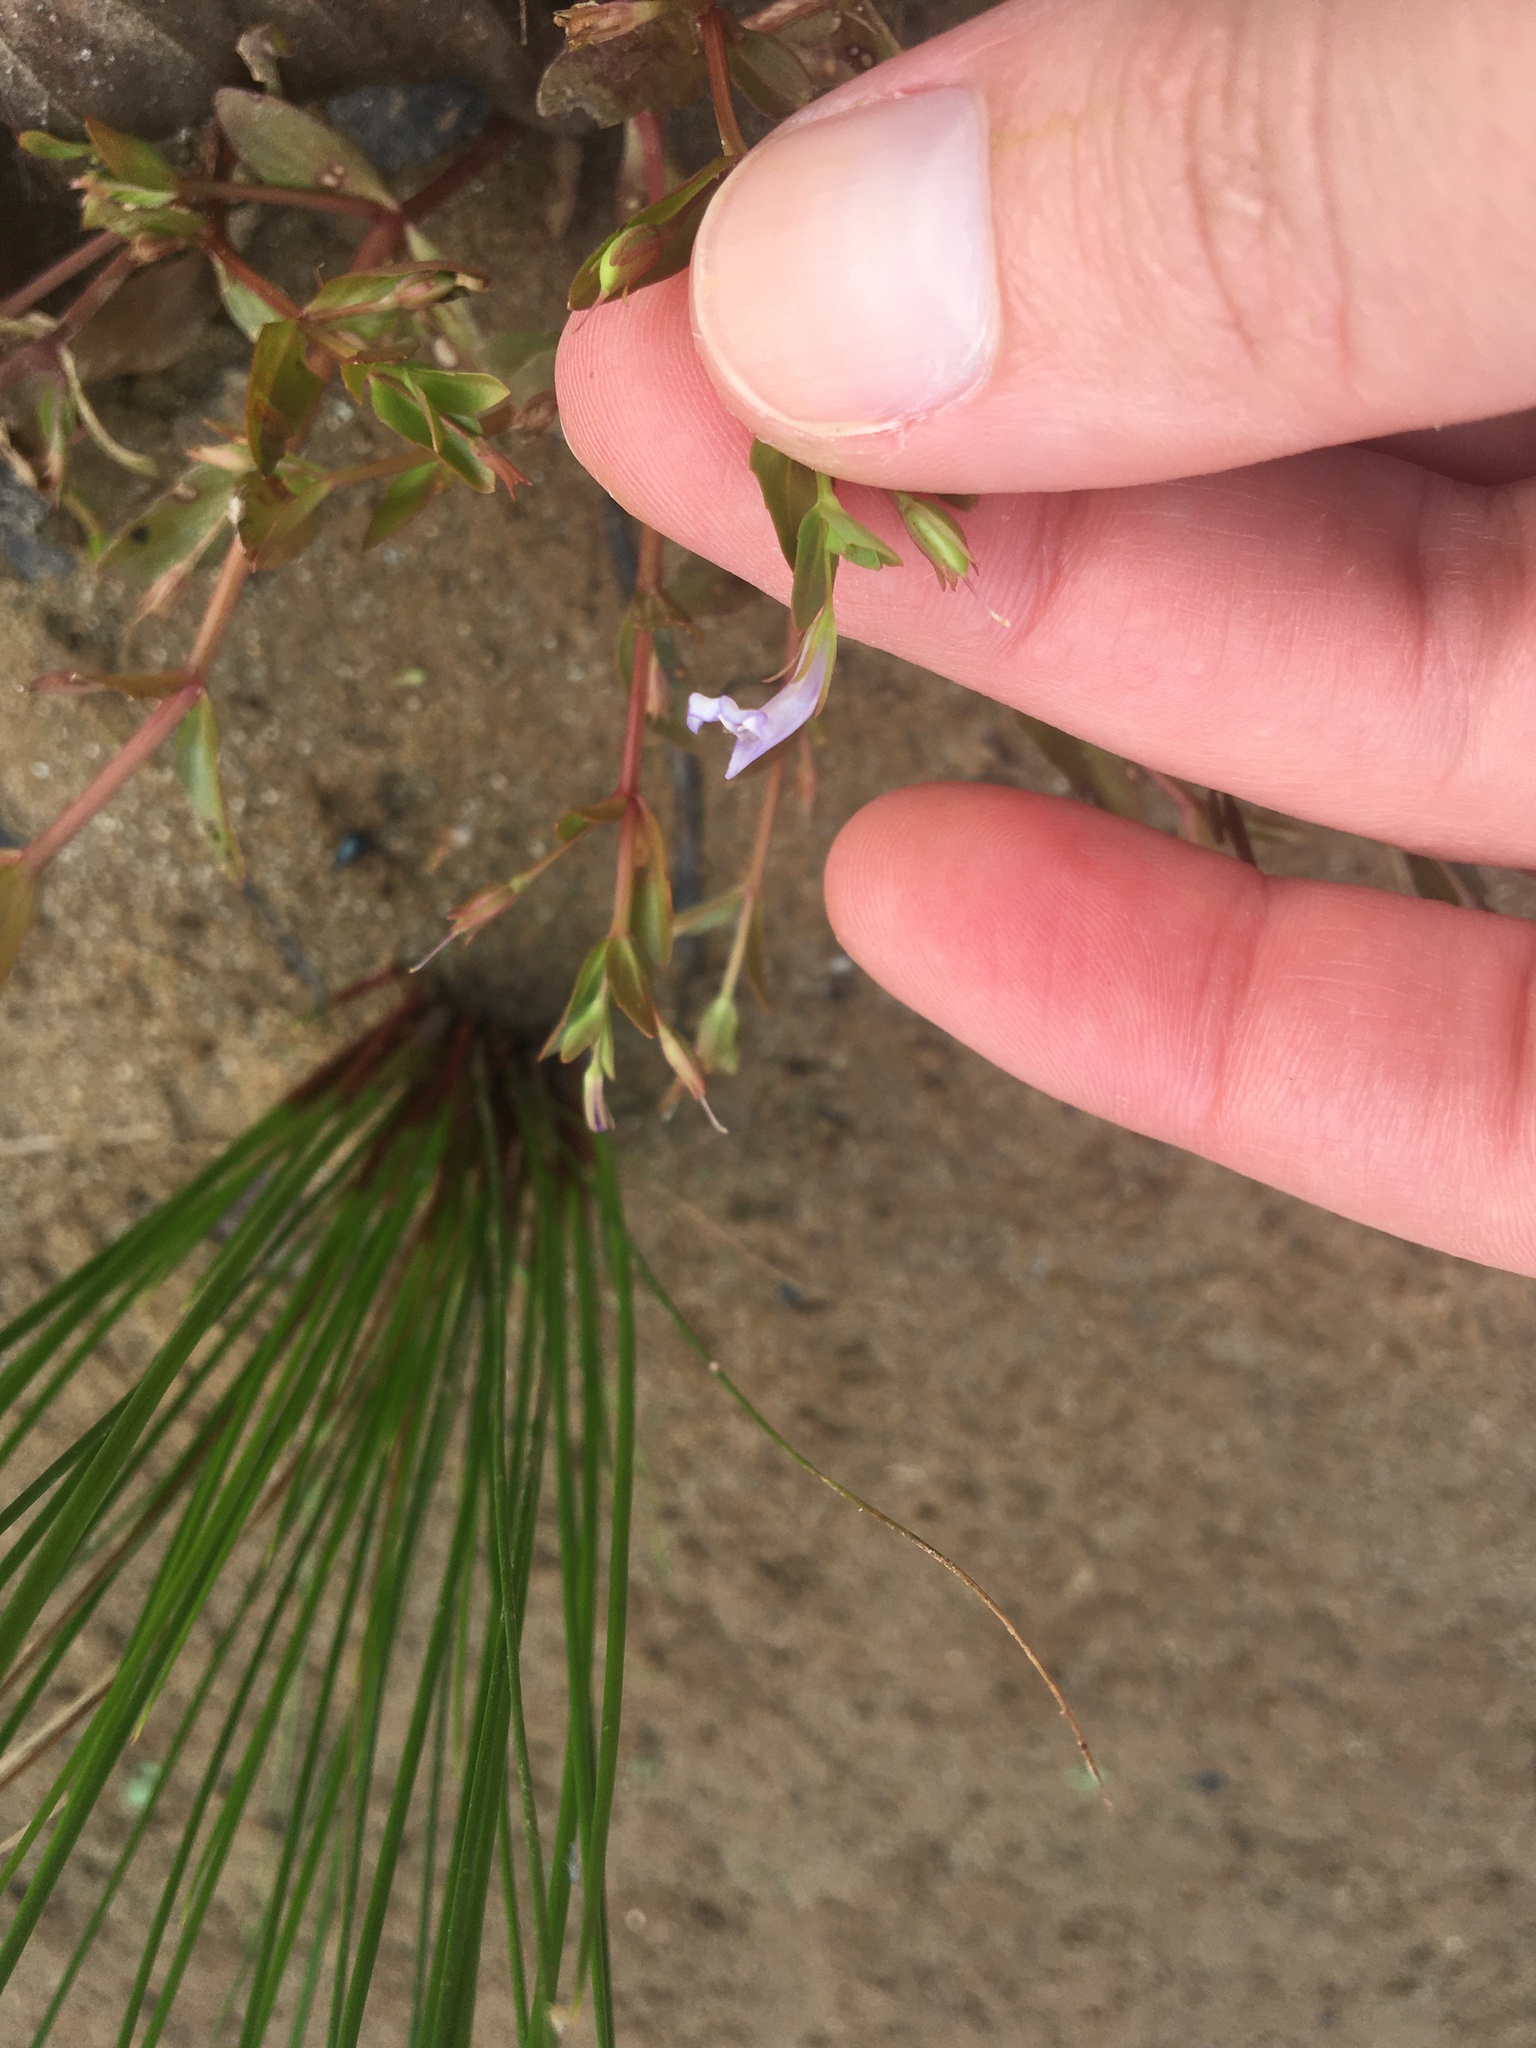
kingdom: Plantae
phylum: Tracheophyta
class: Magnoliopsida
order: Lamiales
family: Linderniaceae
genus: Lindernia
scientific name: Lindernia dubia
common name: Annual false pimpernel
